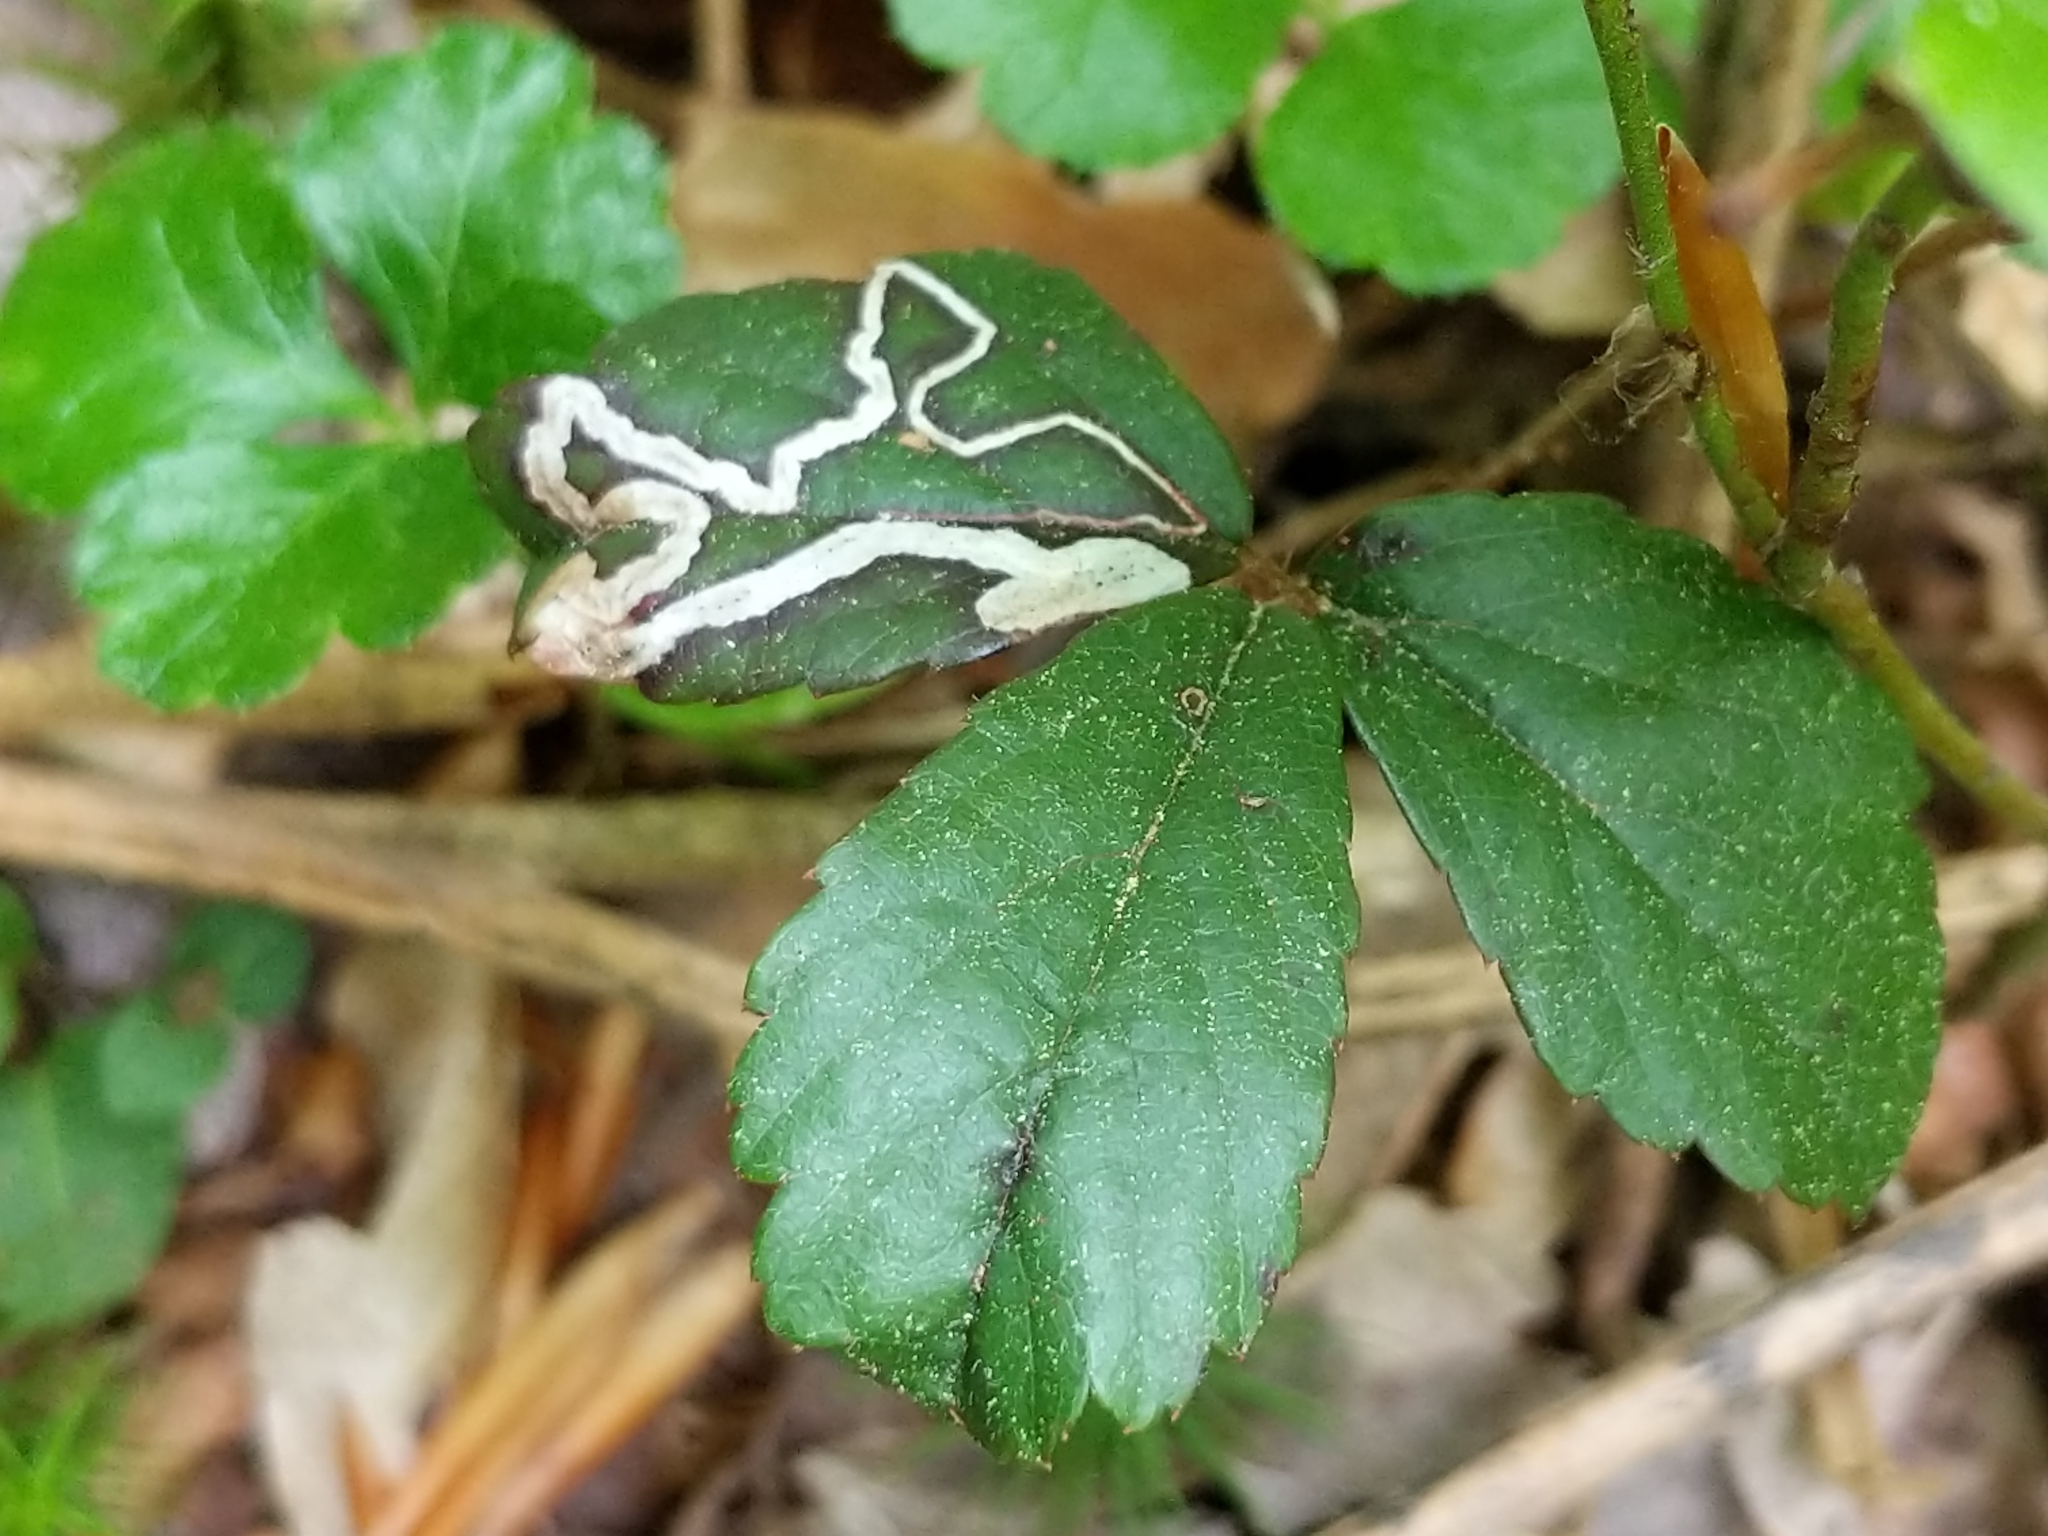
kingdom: Animalia
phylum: Arthropoda
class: Insecta
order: Lepidoptera
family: Nepticulidae
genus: Stigmella
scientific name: Stigmella villosella
